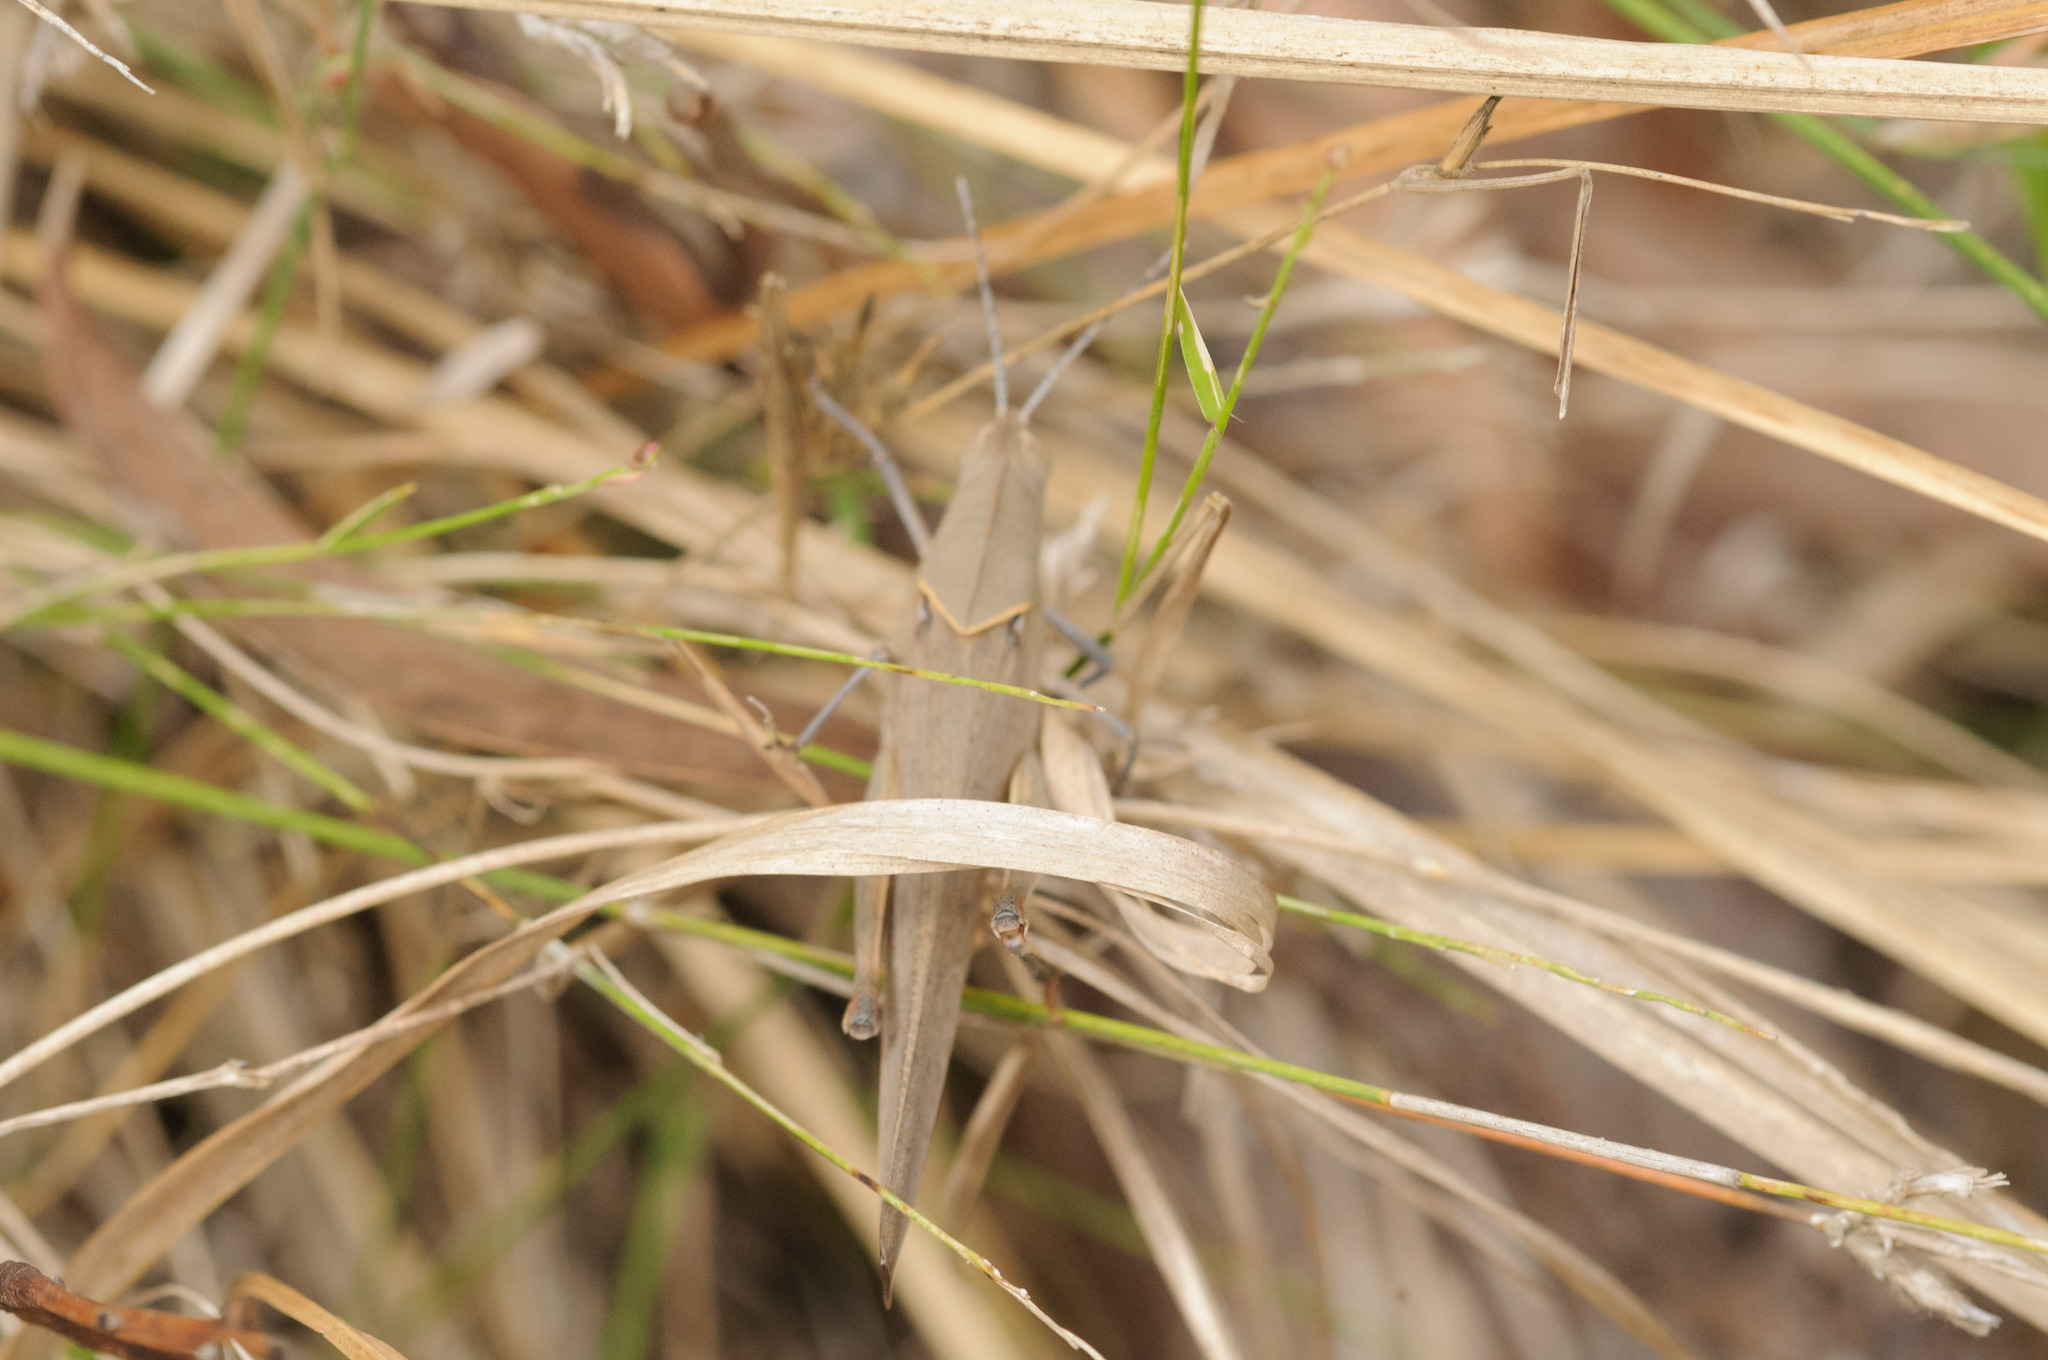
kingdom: Animalia
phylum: Arthropoda
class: Insecta
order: Orthoptera
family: Acrididae
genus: Goniaea
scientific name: Goniaea carinata
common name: Black-kneed gumleaf grasshopper
